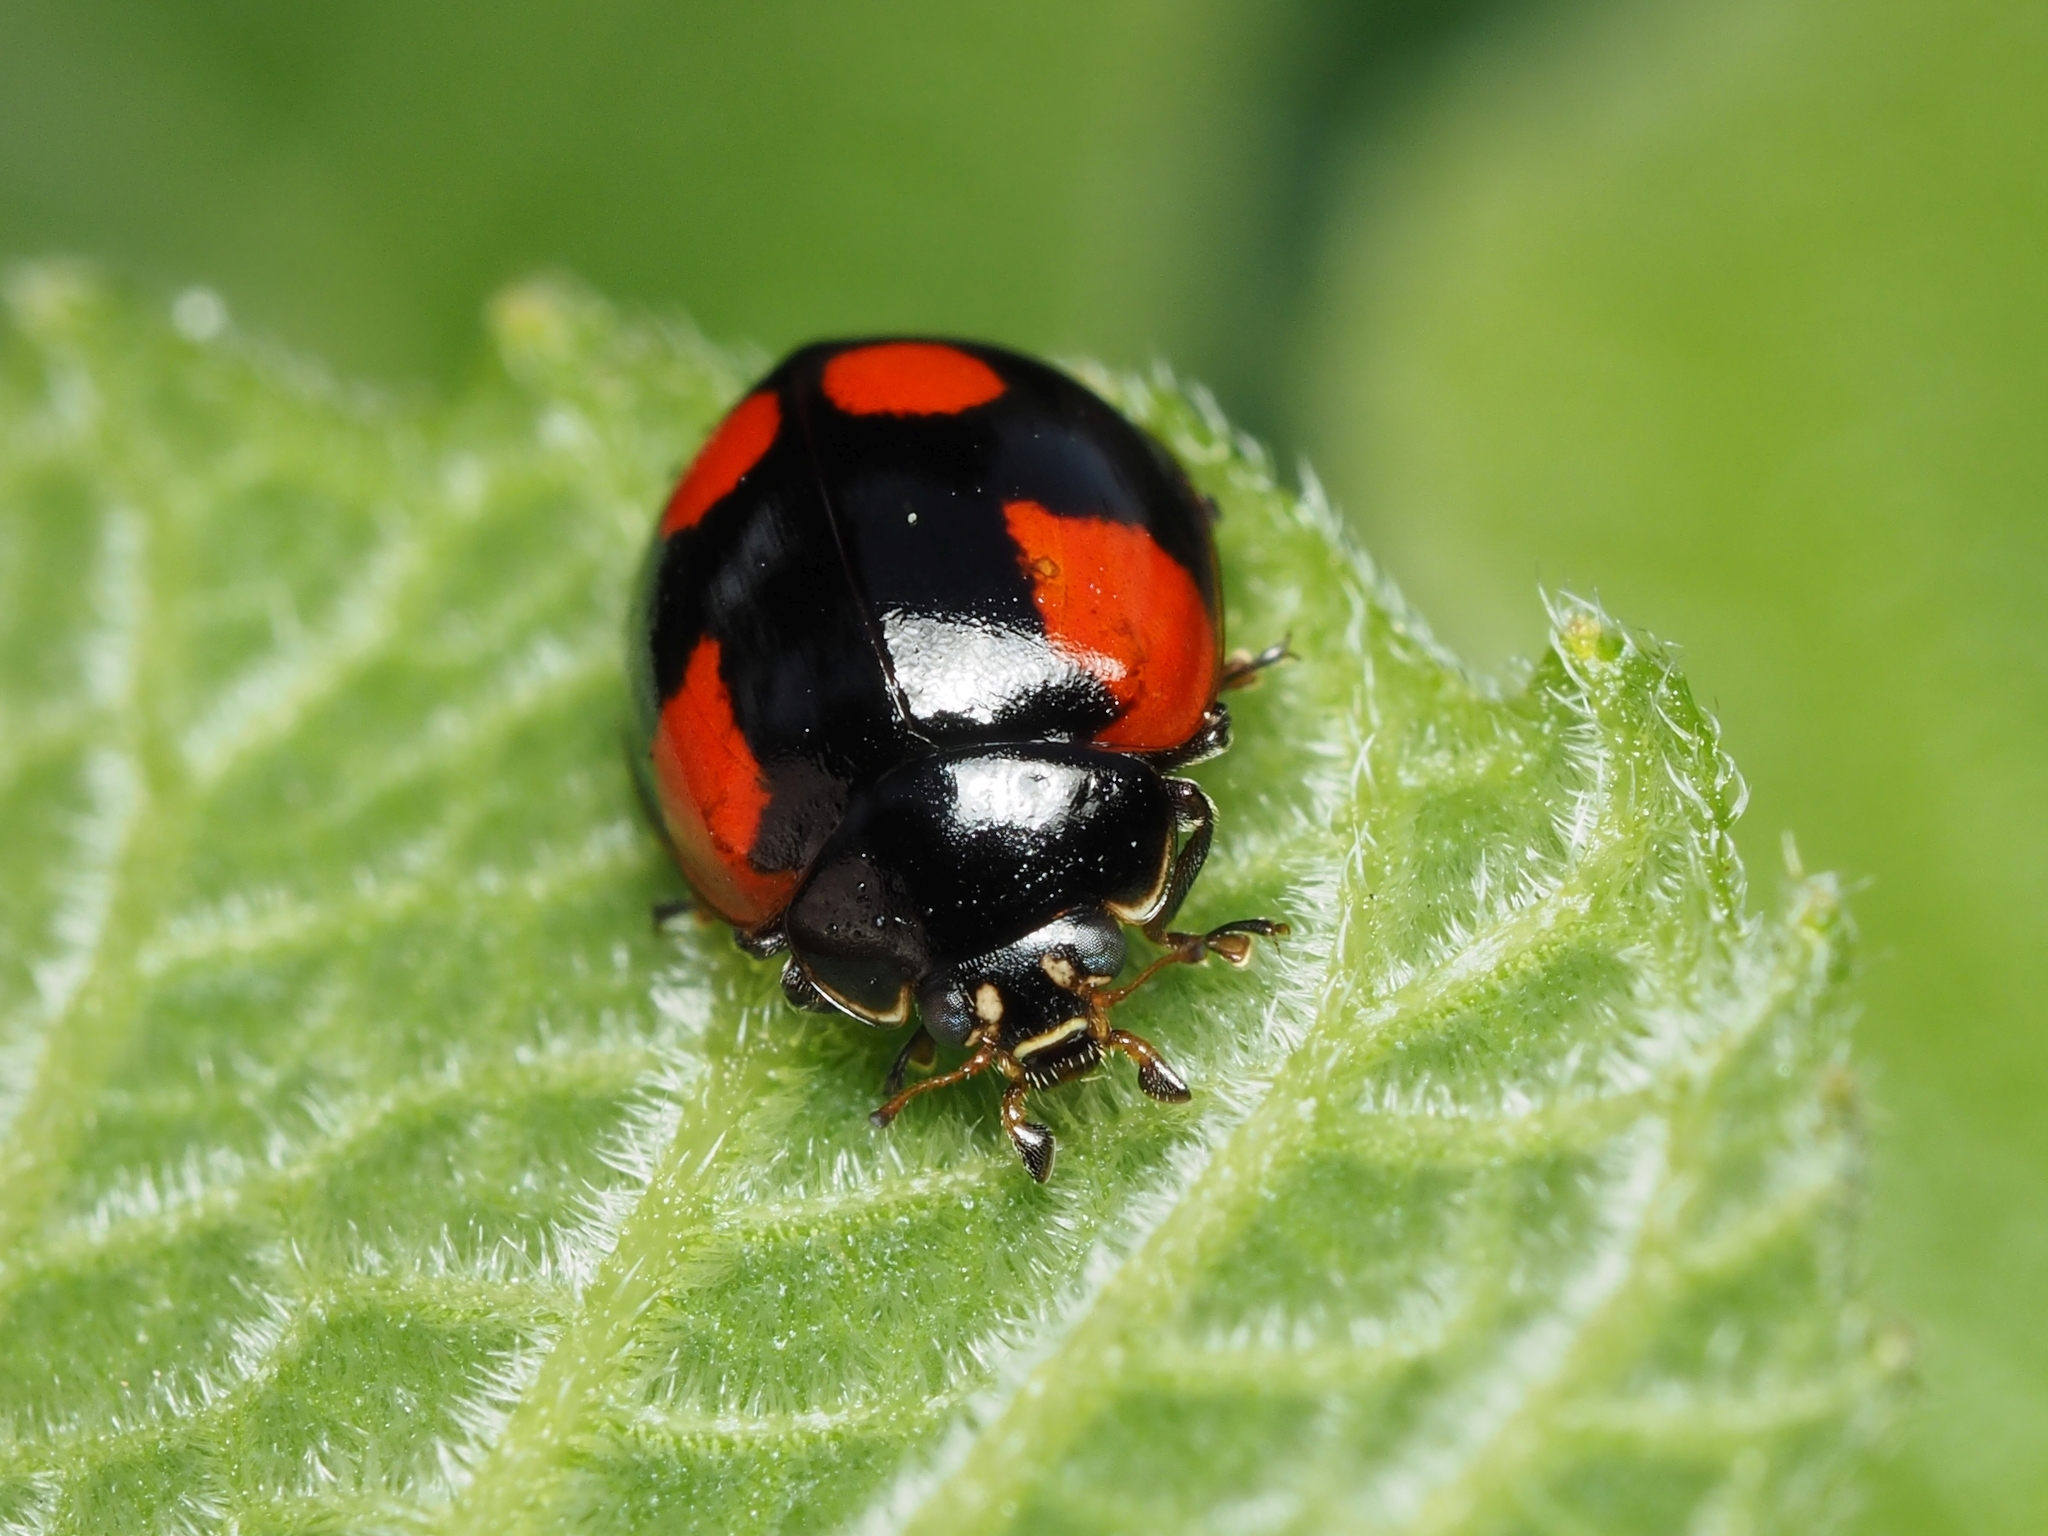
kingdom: Animalia
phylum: Arthropoda
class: Insecta
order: Coleoptera
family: Coccinellidae
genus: Adalia
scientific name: Adalia bipunctata
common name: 2-spot ladybird
